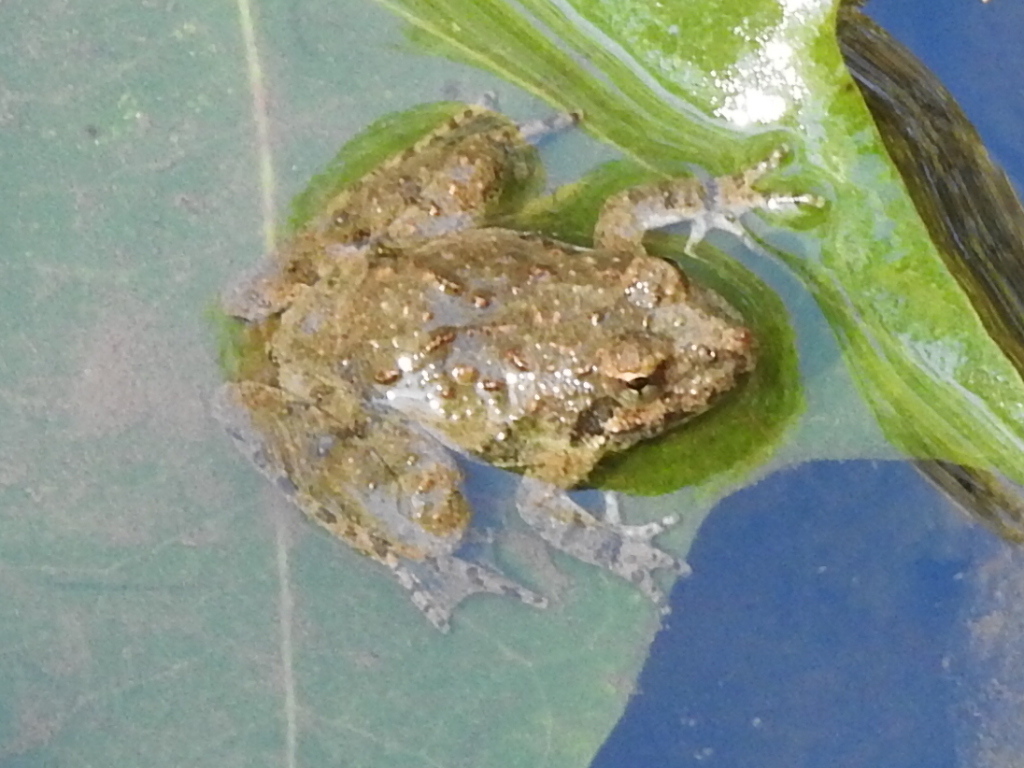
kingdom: Animalia
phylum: Chordata
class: Amphibia
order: Anura
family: Hylidae
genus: Acris
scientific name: Acris blanchardi
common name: Blanchard's cricket frog
